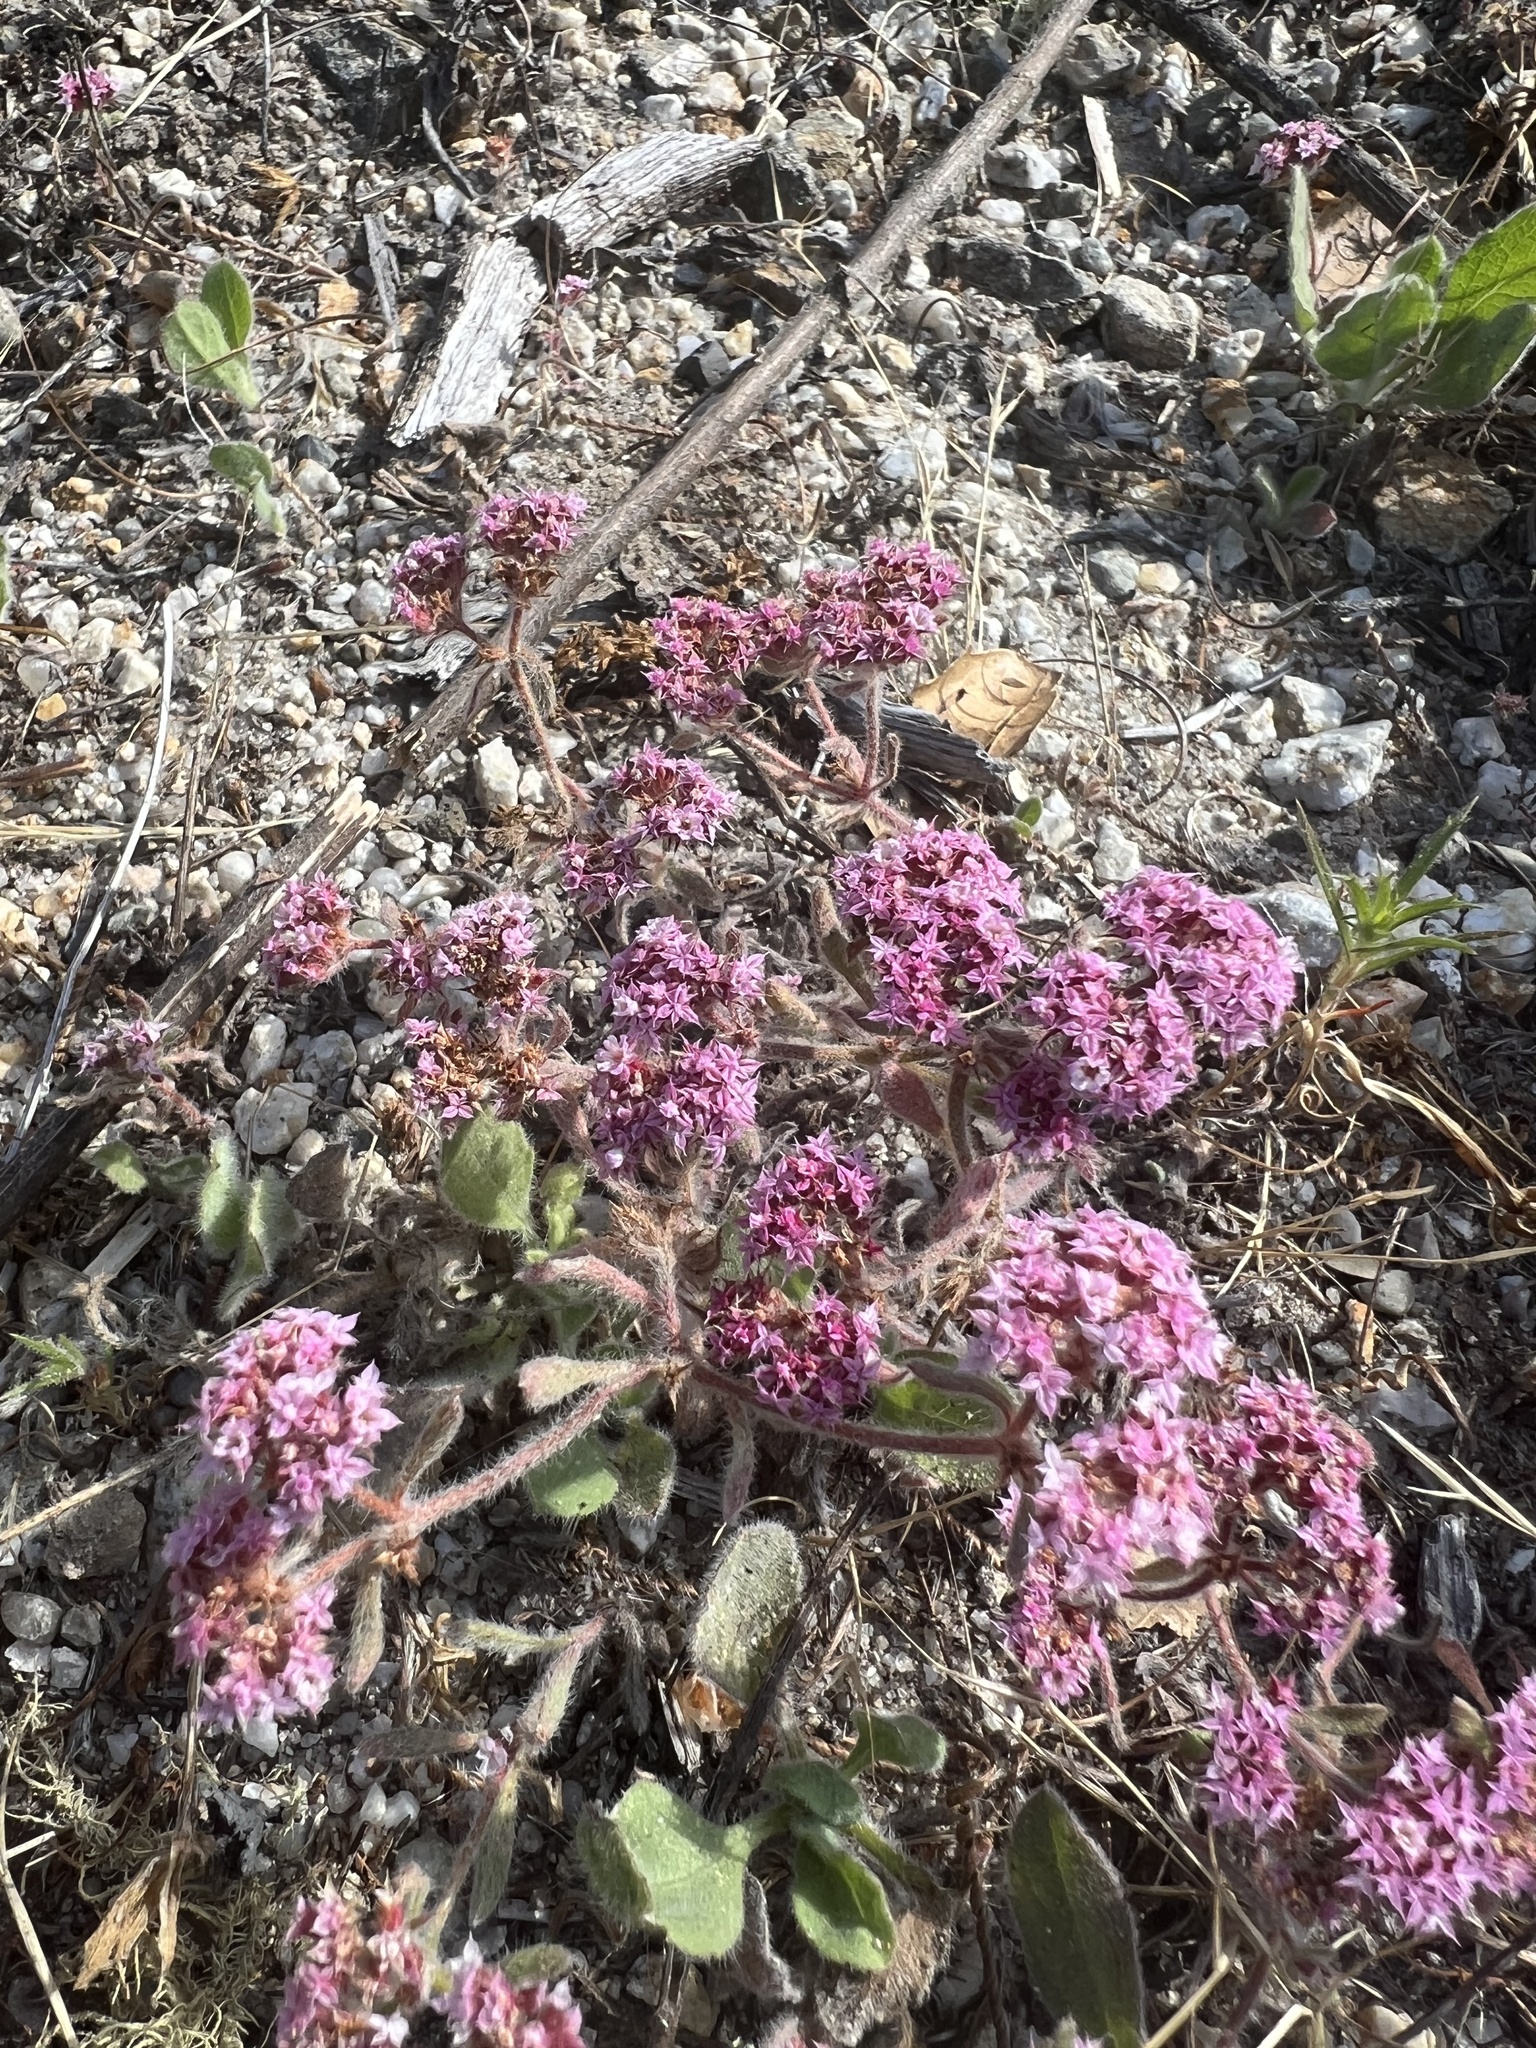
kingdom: Plantae
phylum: Tracheophyta
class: Magnoliopsida
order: Caryophyllales
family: Polygonaceae
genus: Chorizanthe
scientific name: Chorizanthe pungens
